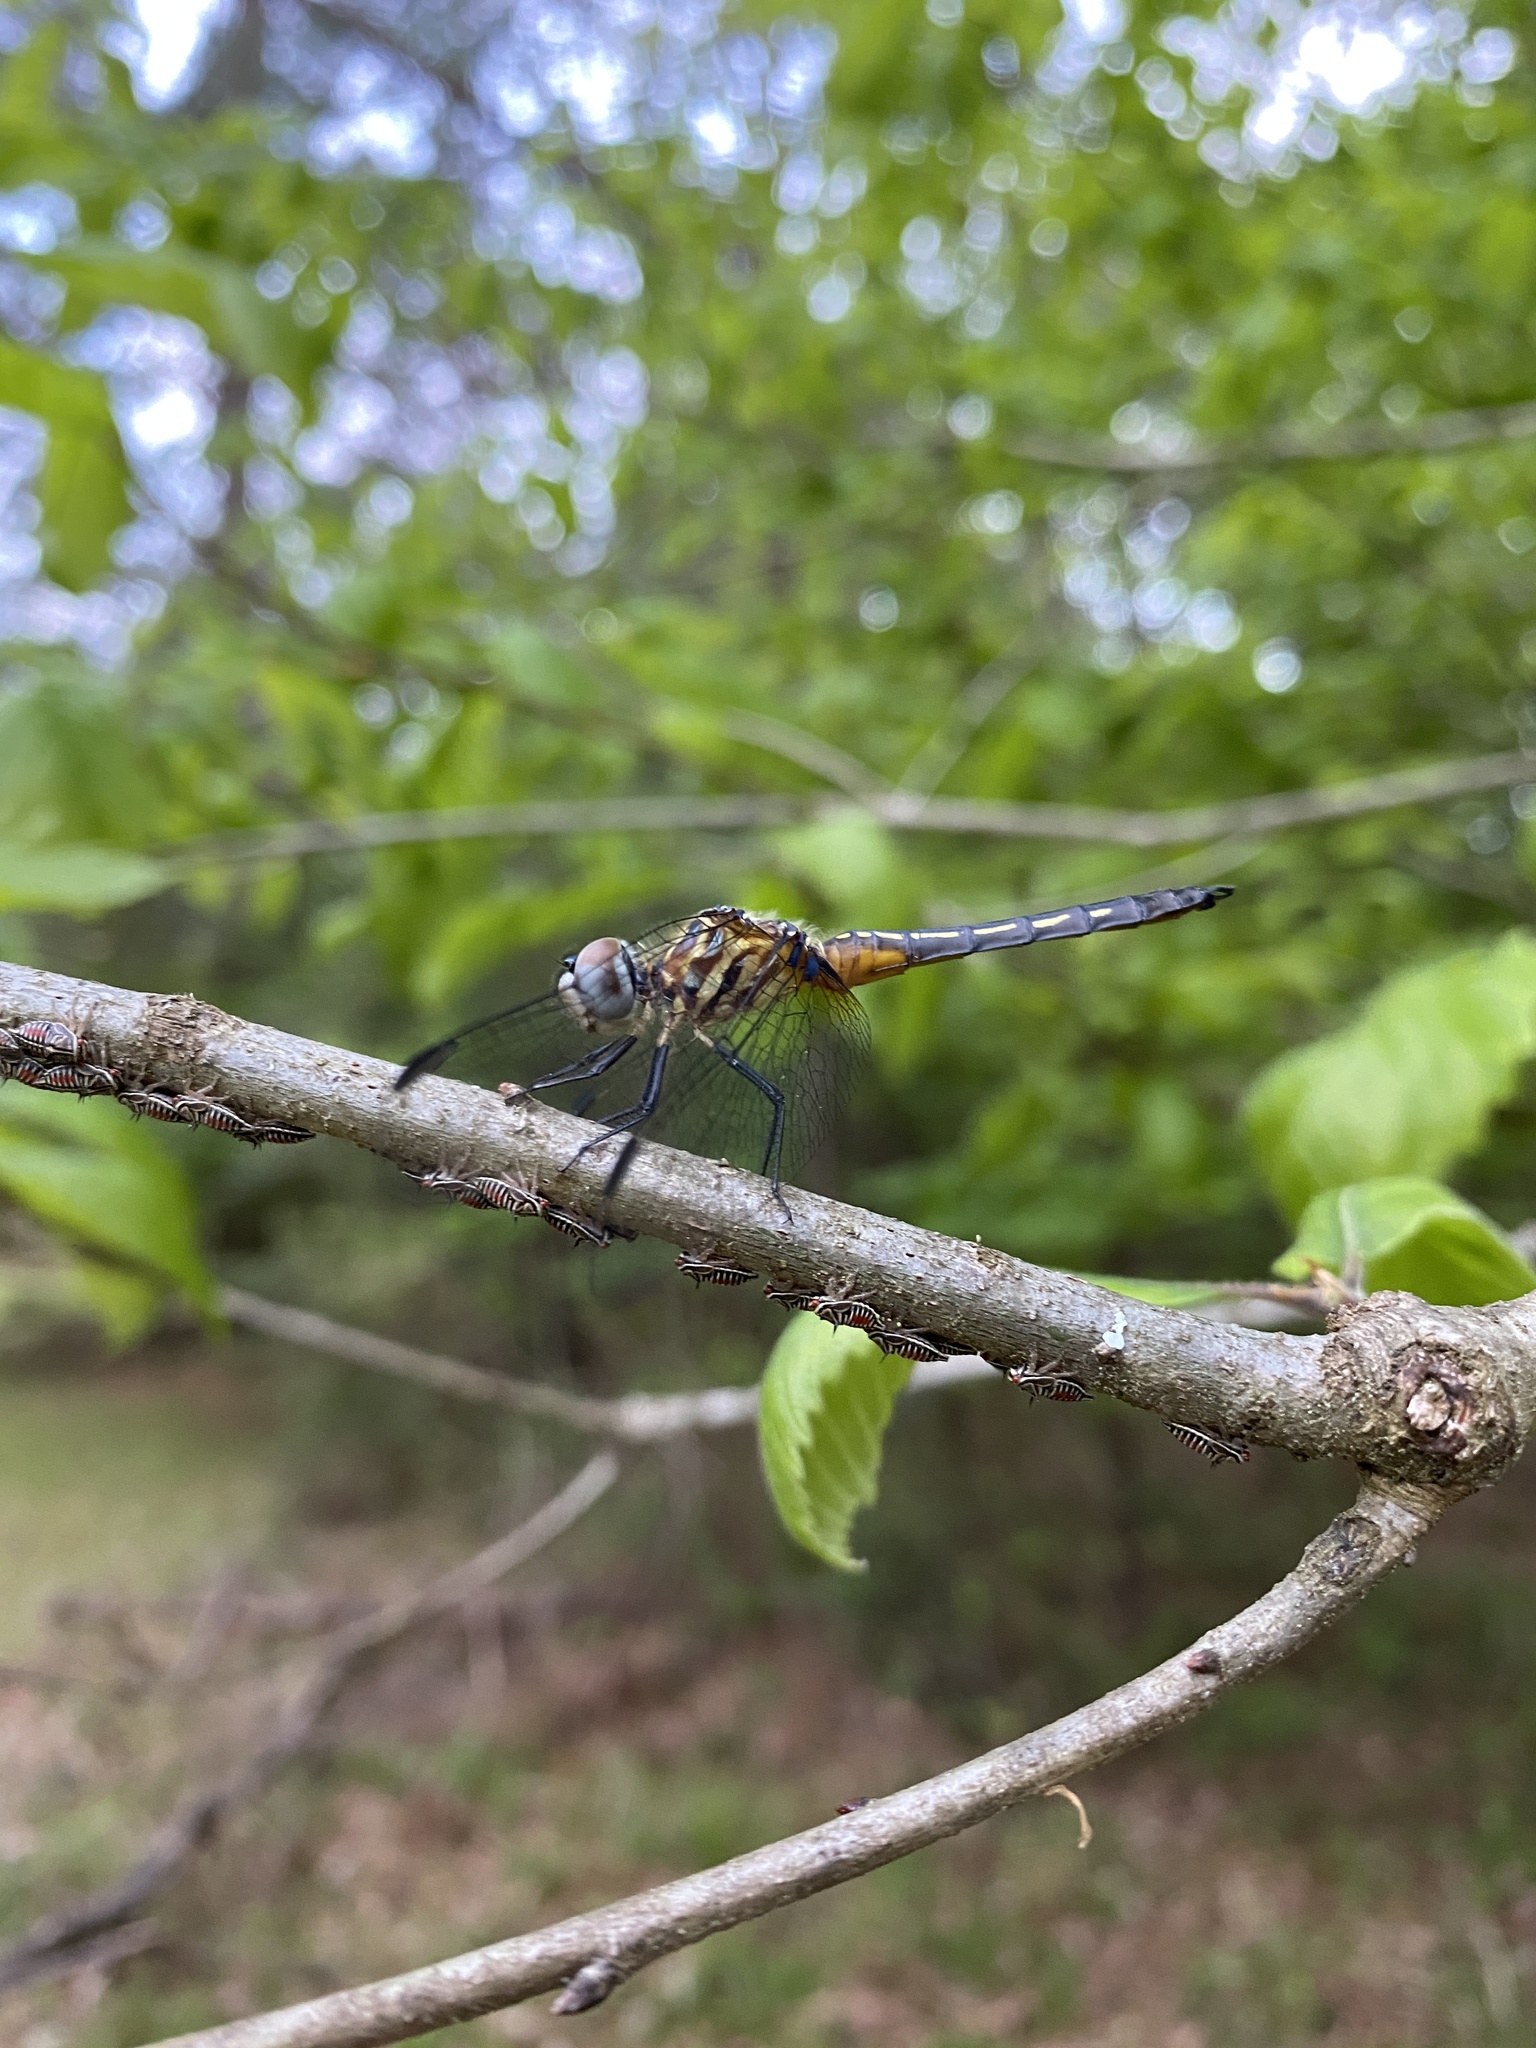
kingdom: Animalia
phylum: Arthropoda
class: Insecta
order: Odonata
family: Libellulidae
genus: Pachydiplax
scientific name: Pachydiplax longipennis
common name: Blue dasher
